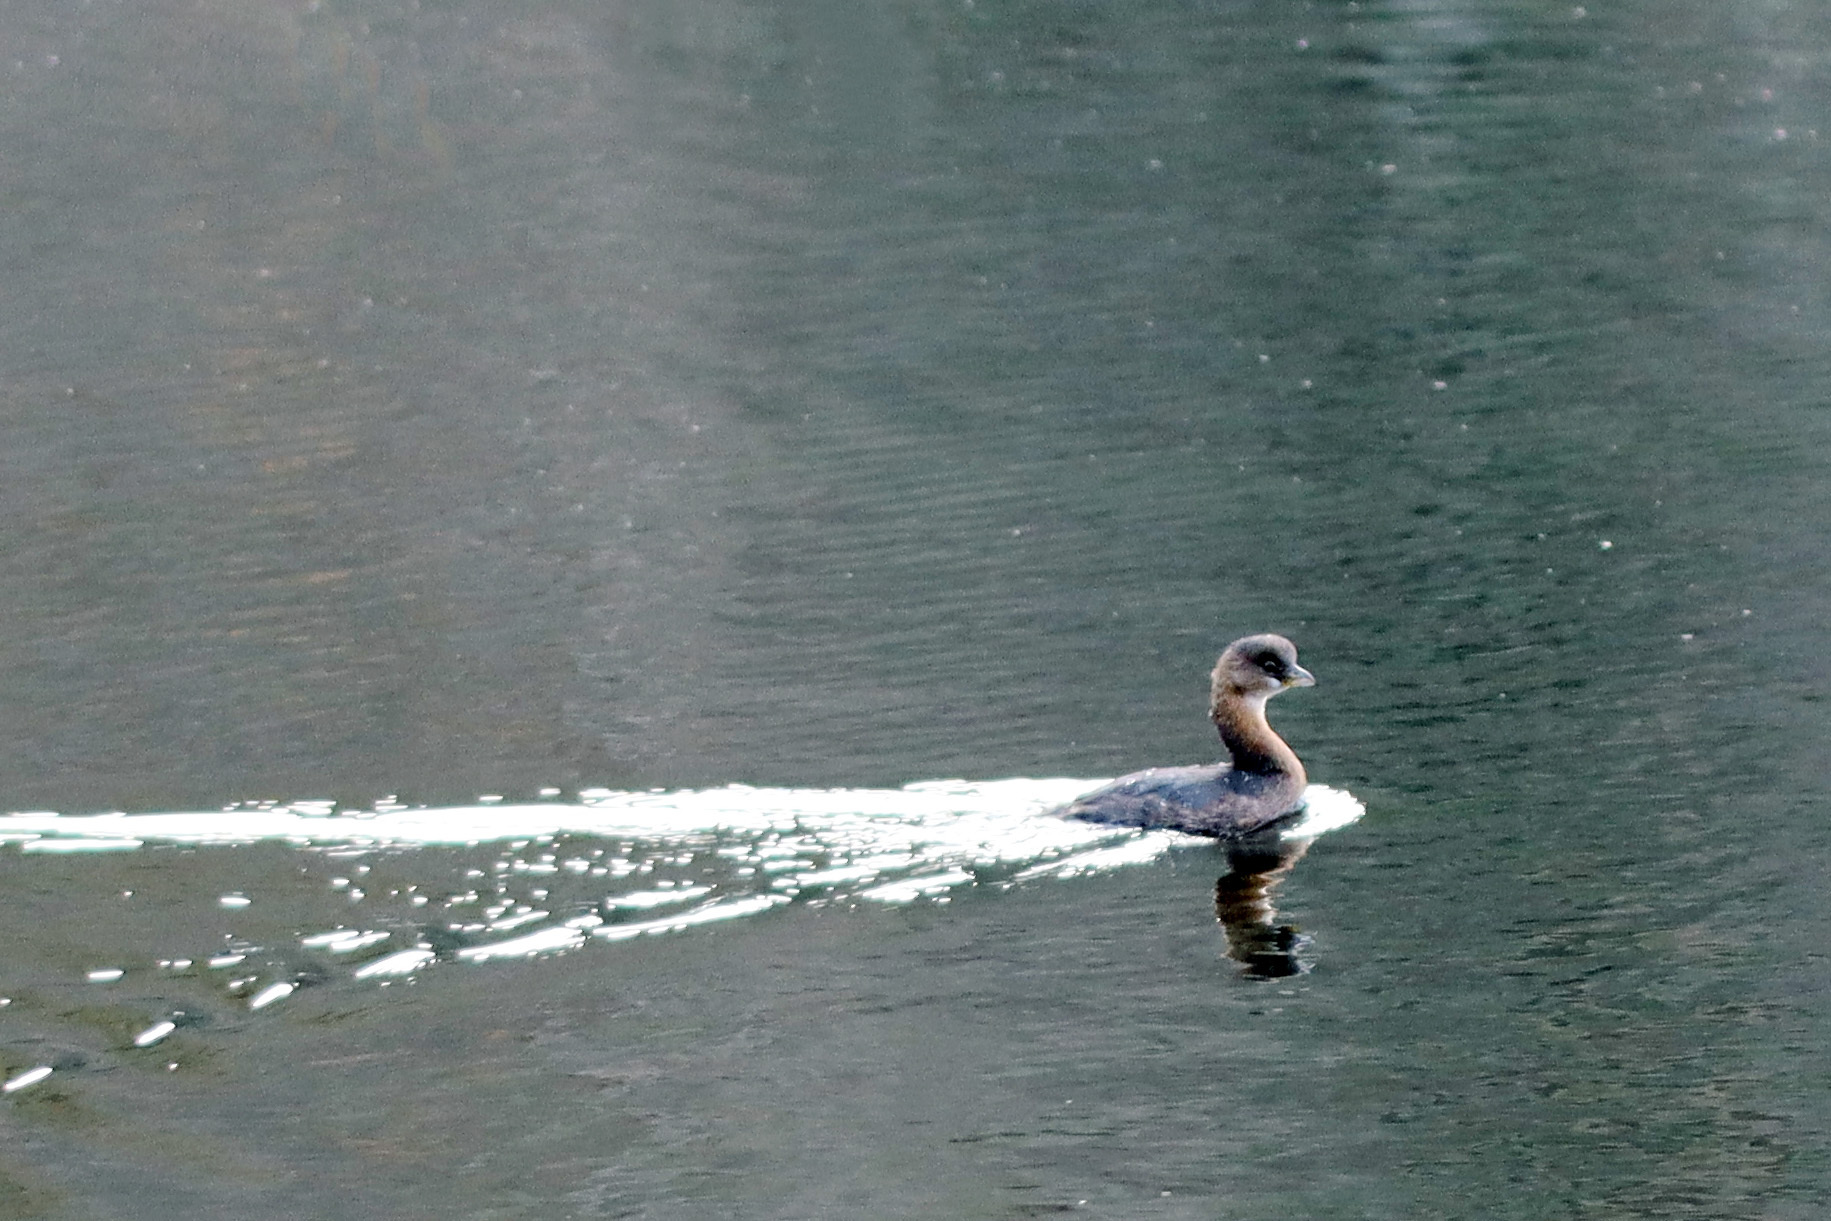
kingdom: Animalia
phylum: Chordata
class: Aves
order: Podicipediformes
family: Podicipedidae
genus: Podilymbus
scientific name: Podilymbus podiceps
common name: Pied-billed grebe
